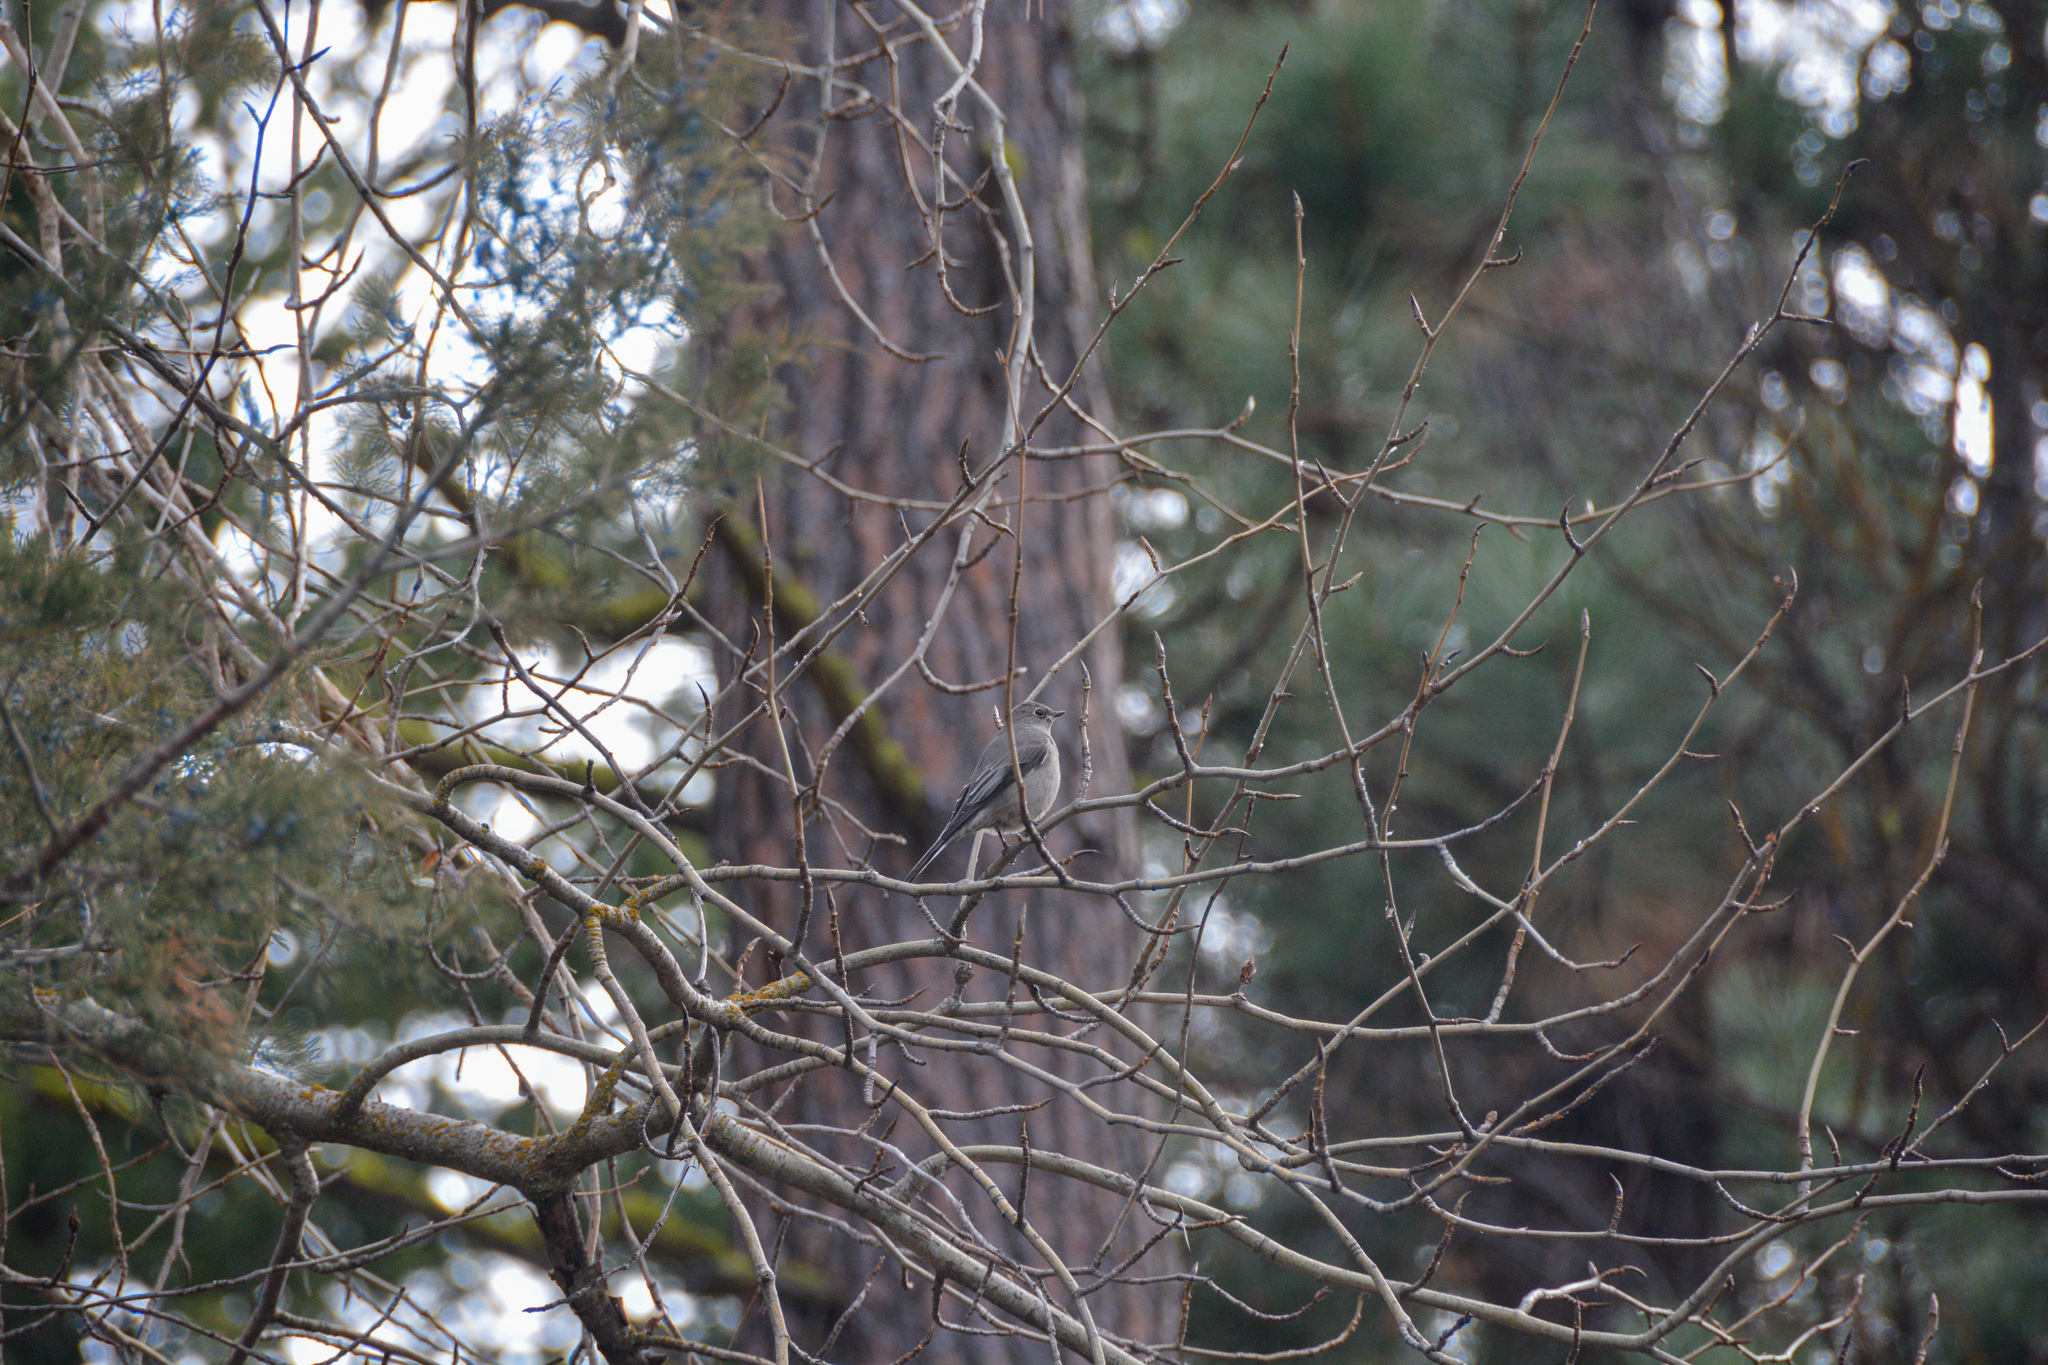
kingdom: Animalia
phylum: Chordata
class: Aves
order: Passeriformes
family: Turdidae
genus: Myadestes
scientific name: Myadestes townsendi
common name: Townsend's solitaire
